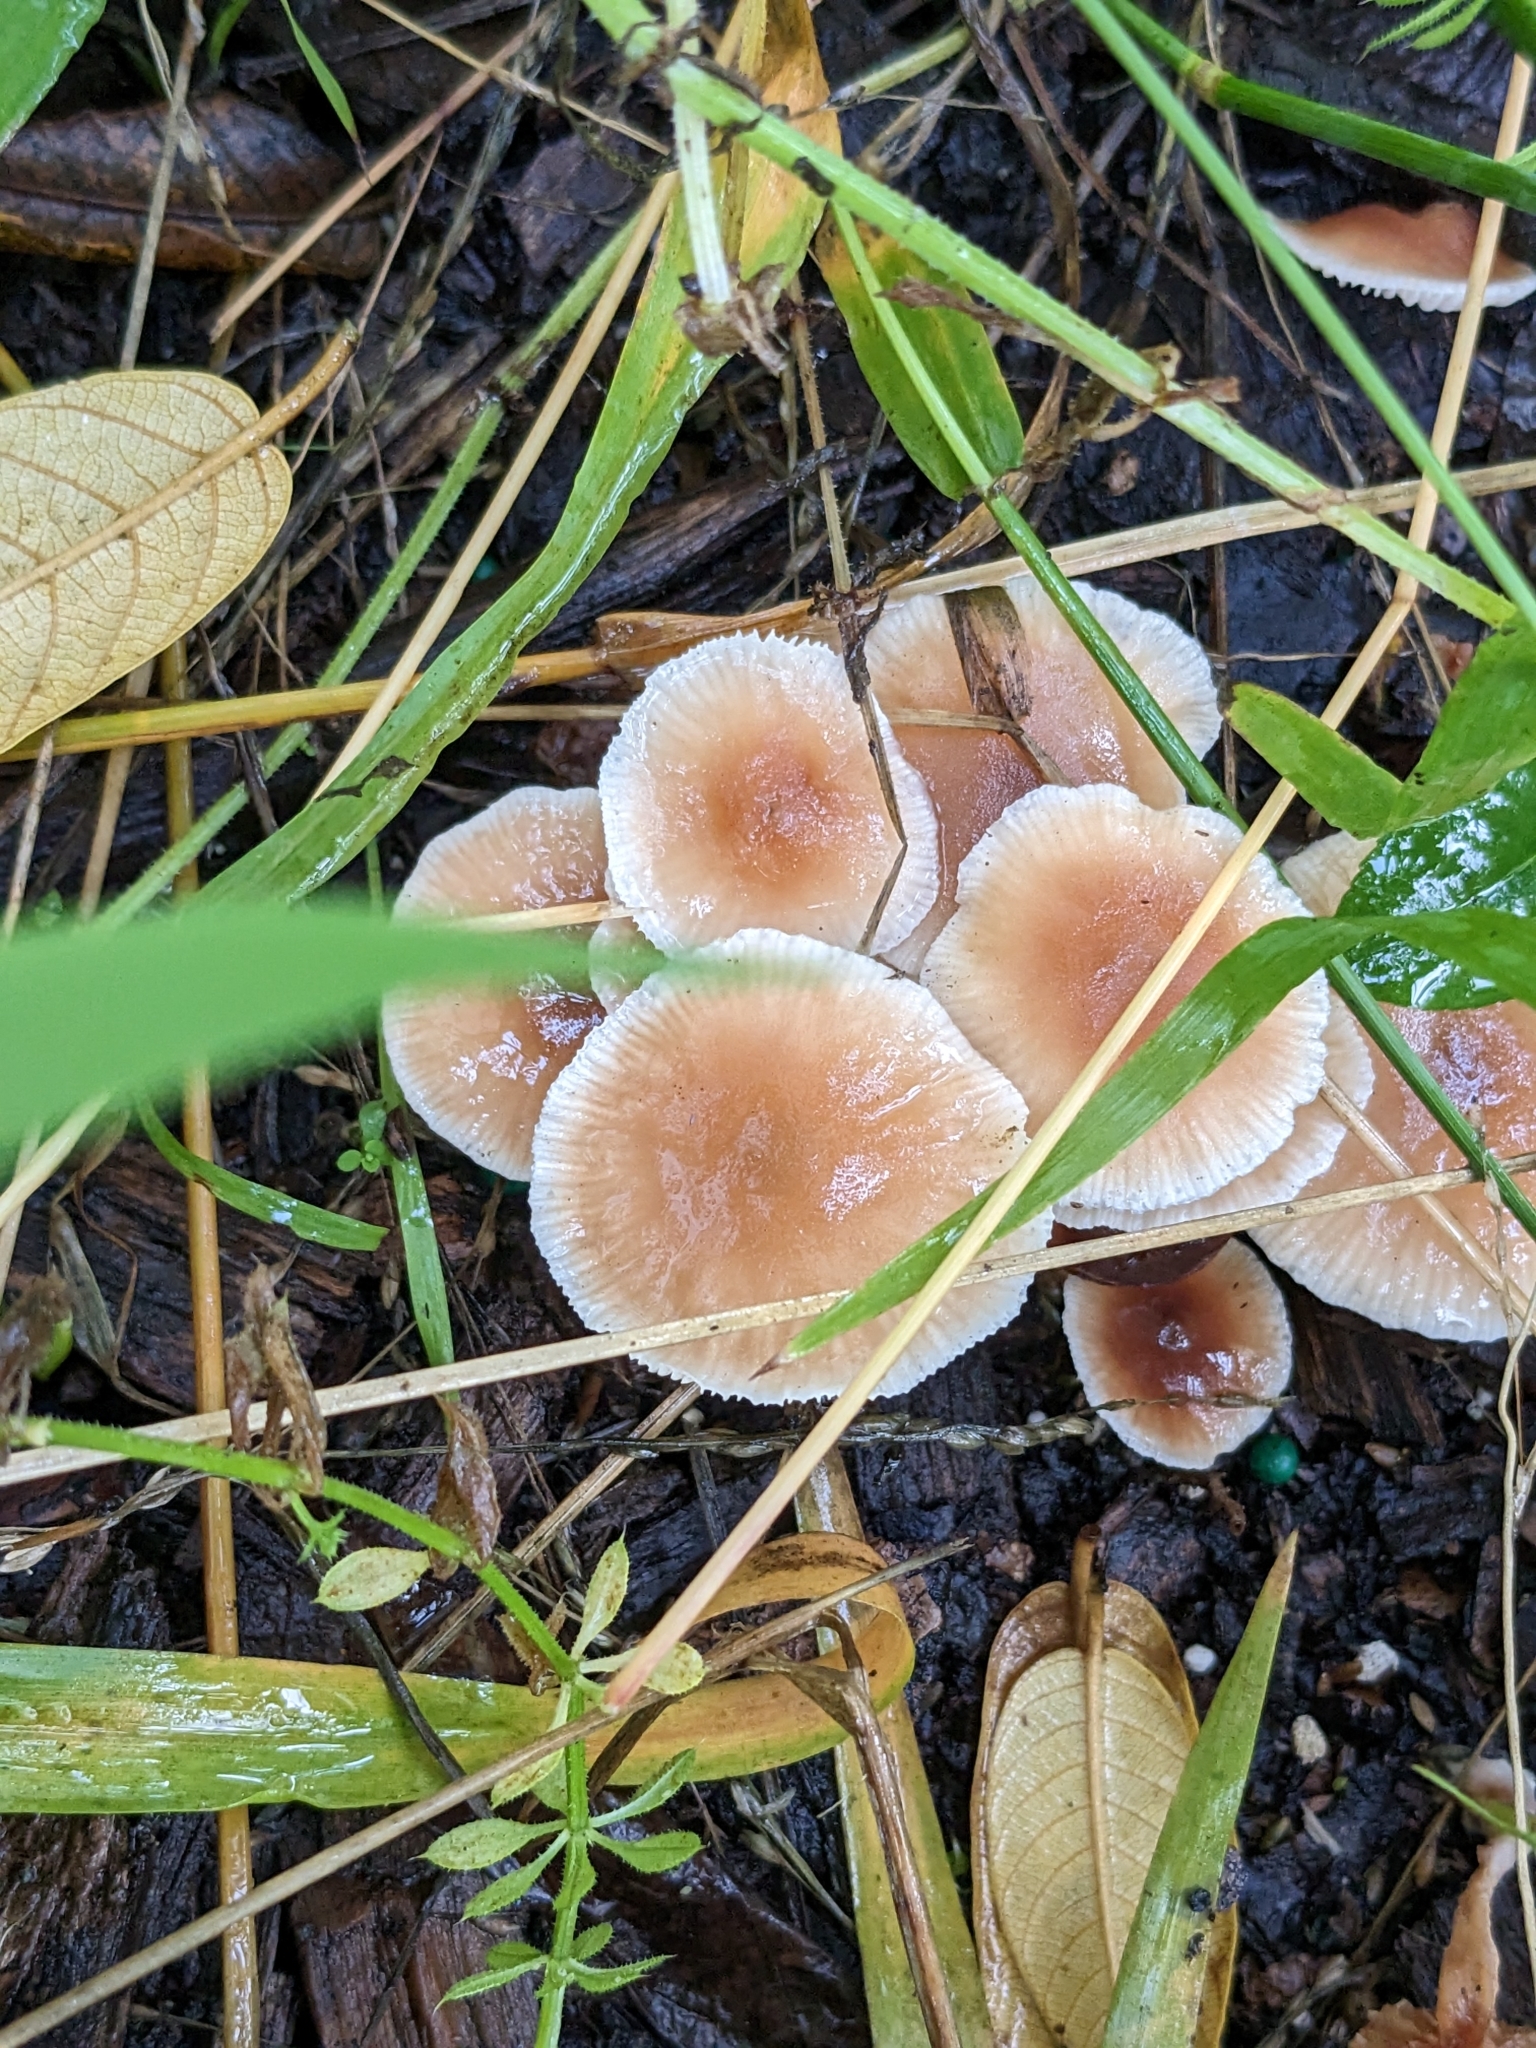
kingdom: Fungi
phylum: Basidiomycota
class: Agaricomycetes
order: Agaricales
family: Omphalotaceae
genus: Gymnopus
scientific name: Gymnopus brassicolens
